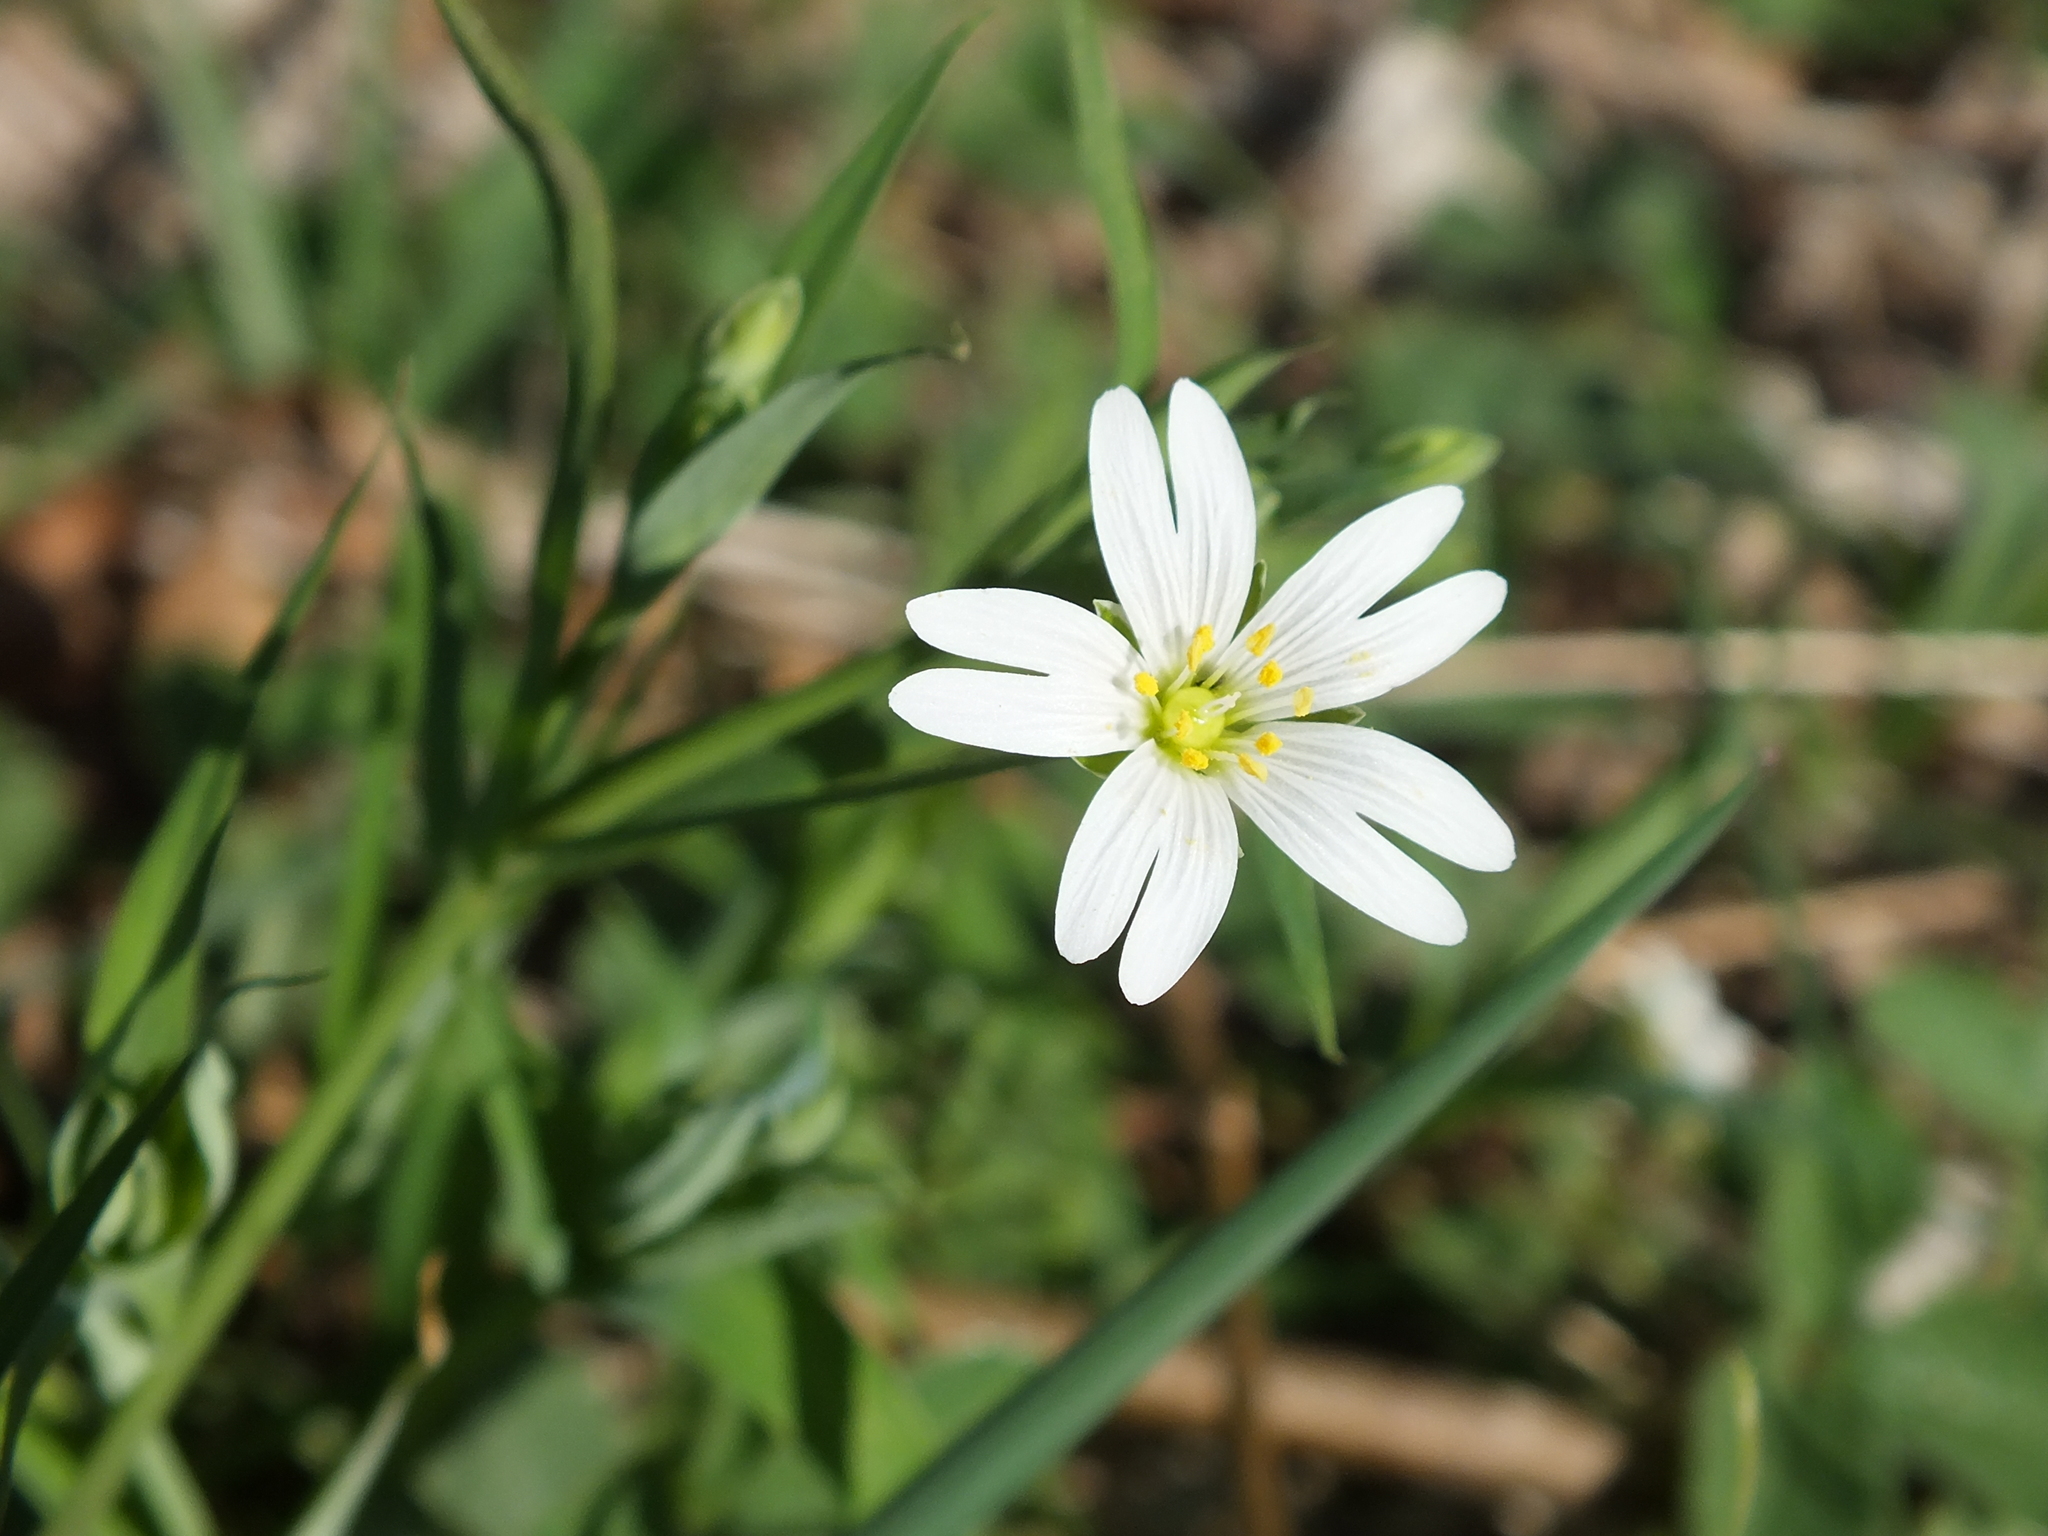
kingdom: Plantae
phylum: Tracheophyta
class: Magnoliopsida
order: Caryophyllales
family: Caryophyllaceae
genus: Rabelera
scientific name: Rabelera holostea
